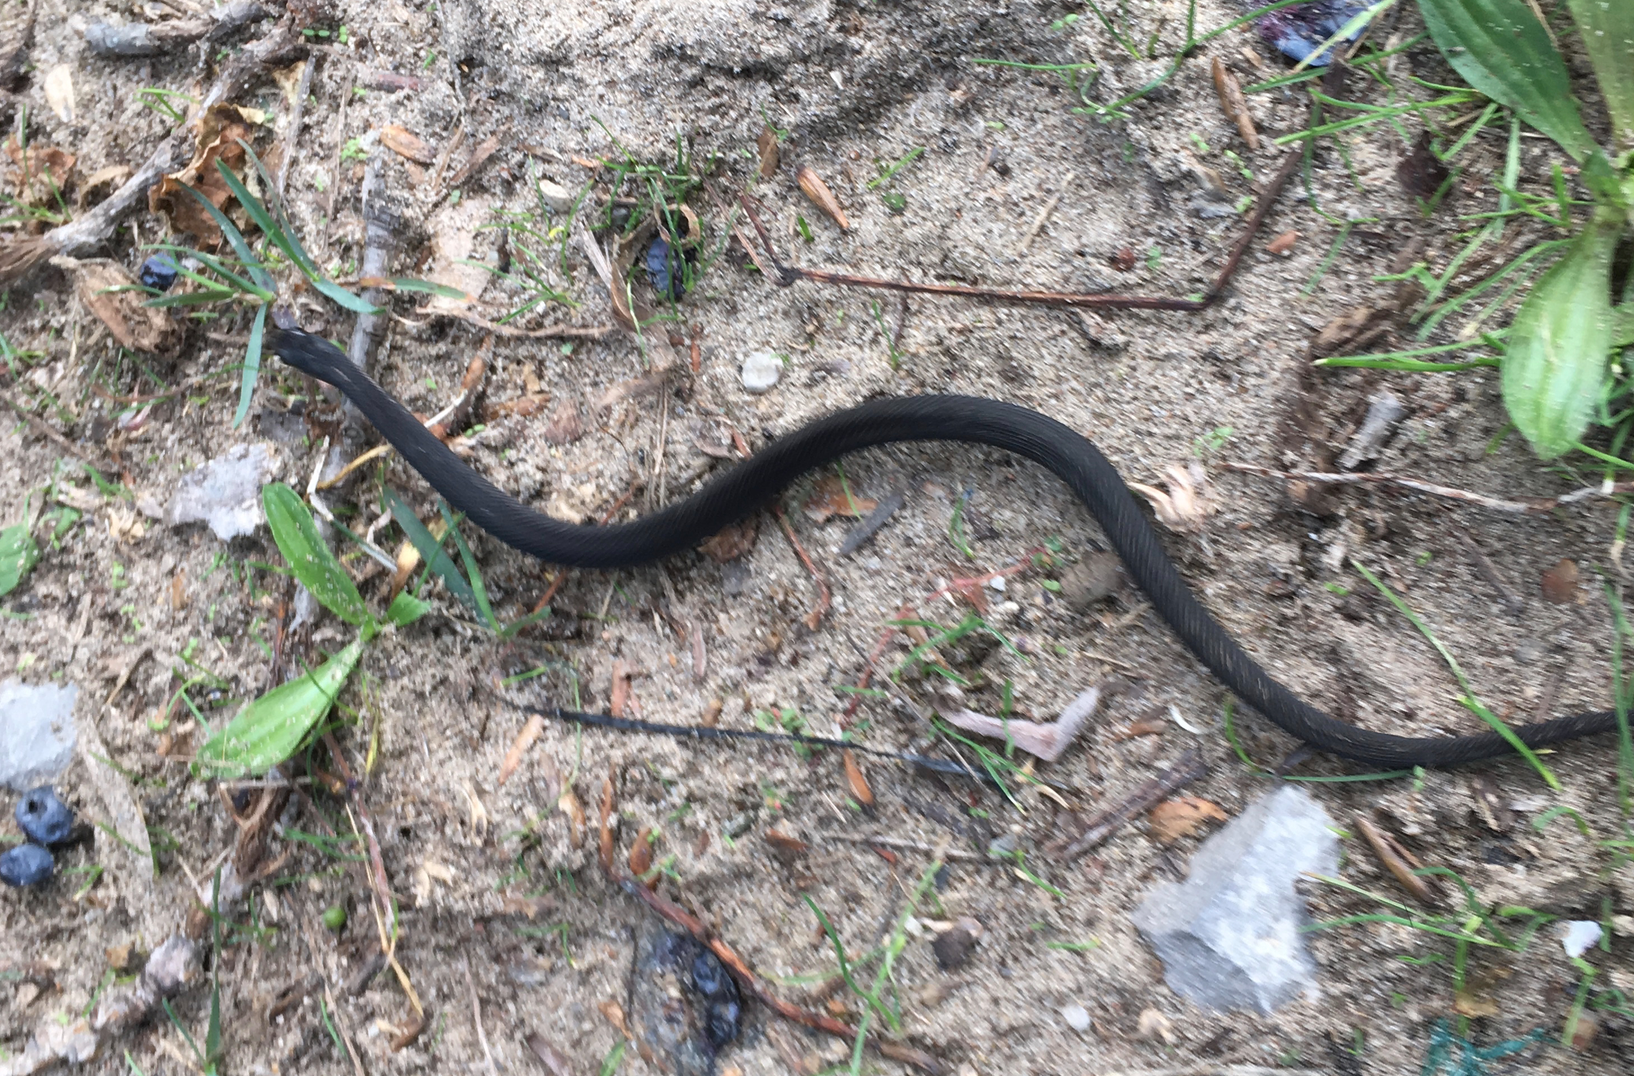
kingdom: Animalia
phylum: Chordata
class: Squamata
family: Colubridae
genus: Thamnophis
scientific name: Thamnophis sirtalis
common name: Common garter snake
